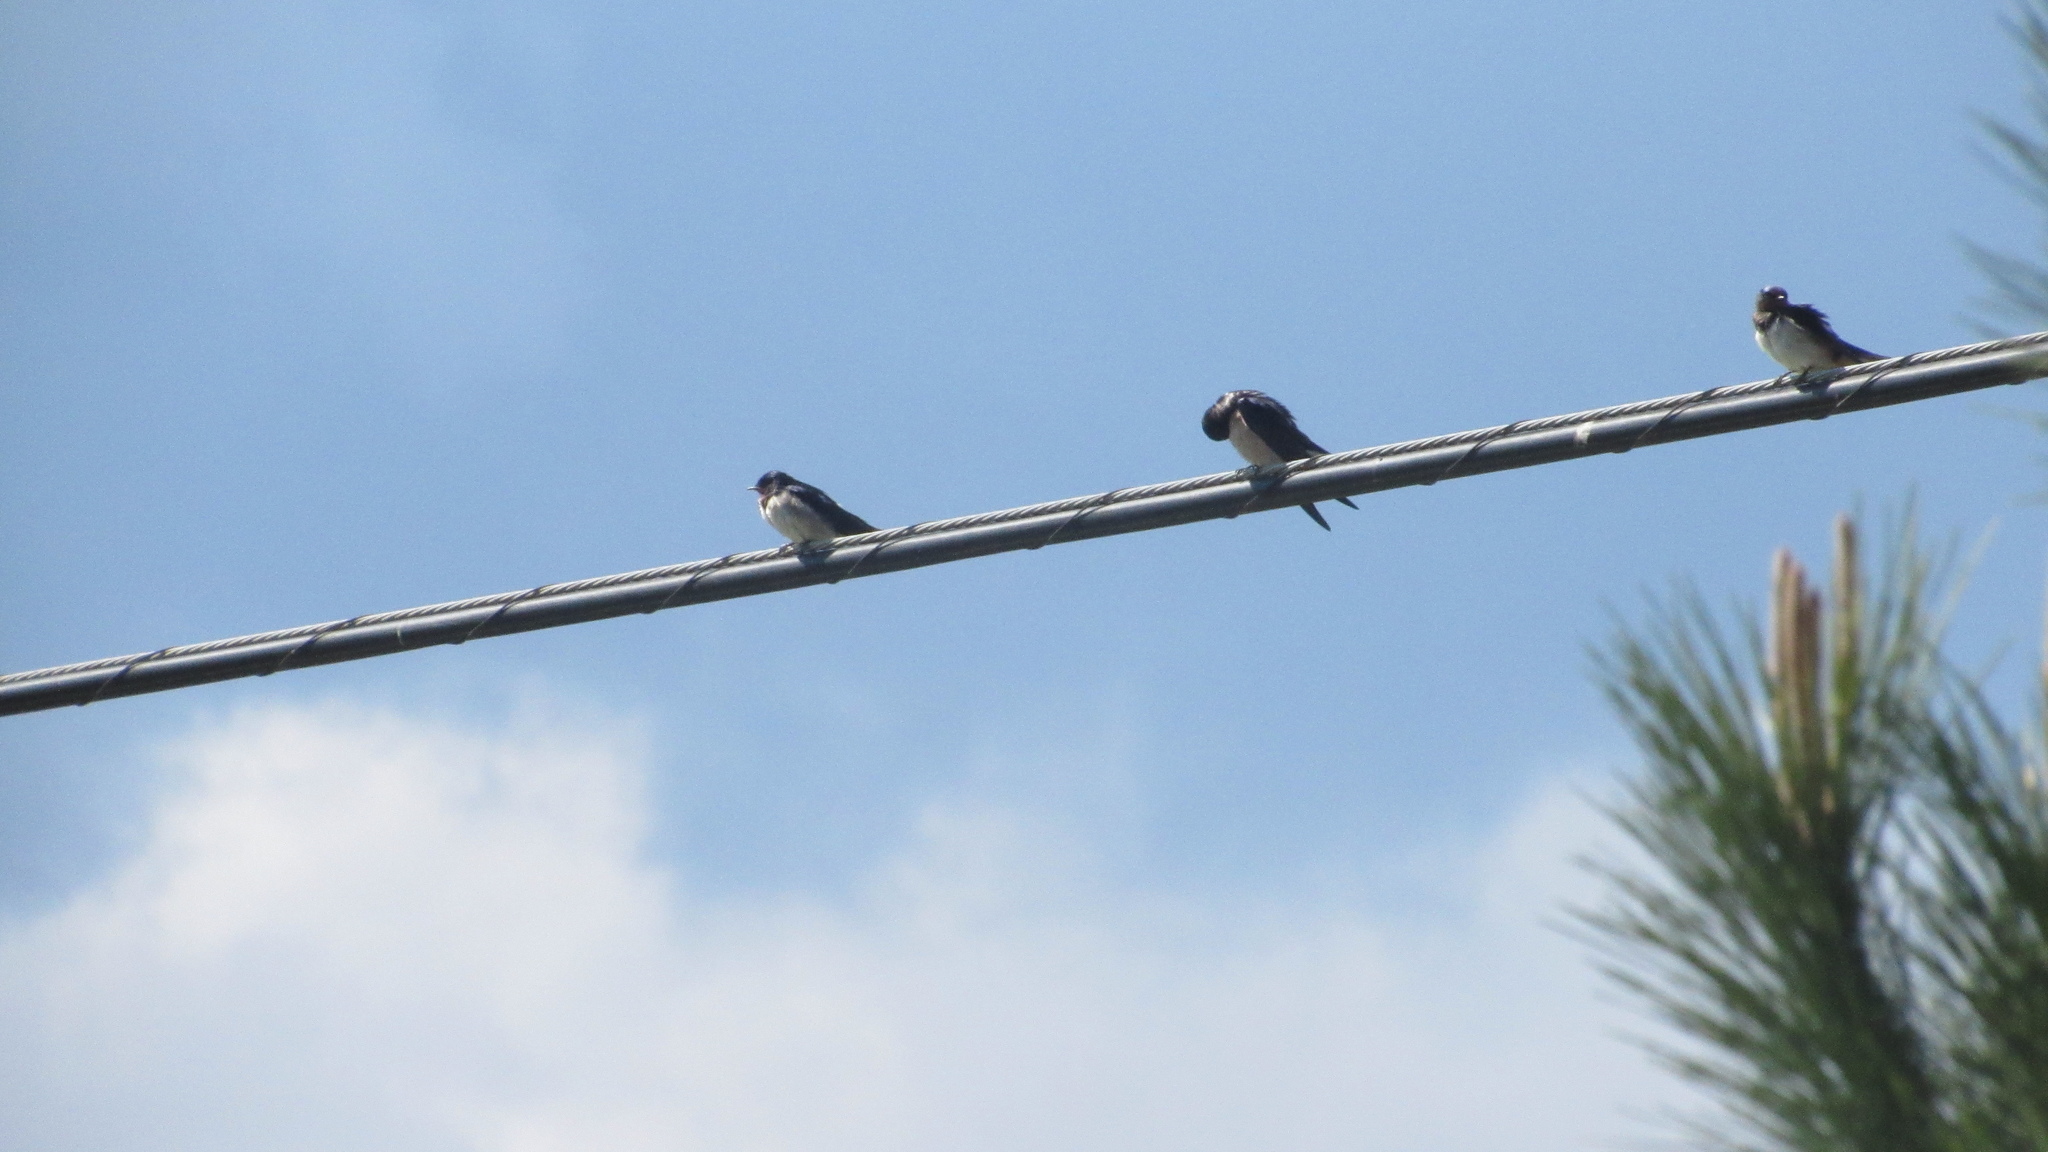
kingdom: Animalia
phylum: Chordata
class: Aves
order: Passeriformes
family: Hirundinidae
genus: Hirundo
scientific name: Hirundo rustica
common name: Barn swallow
